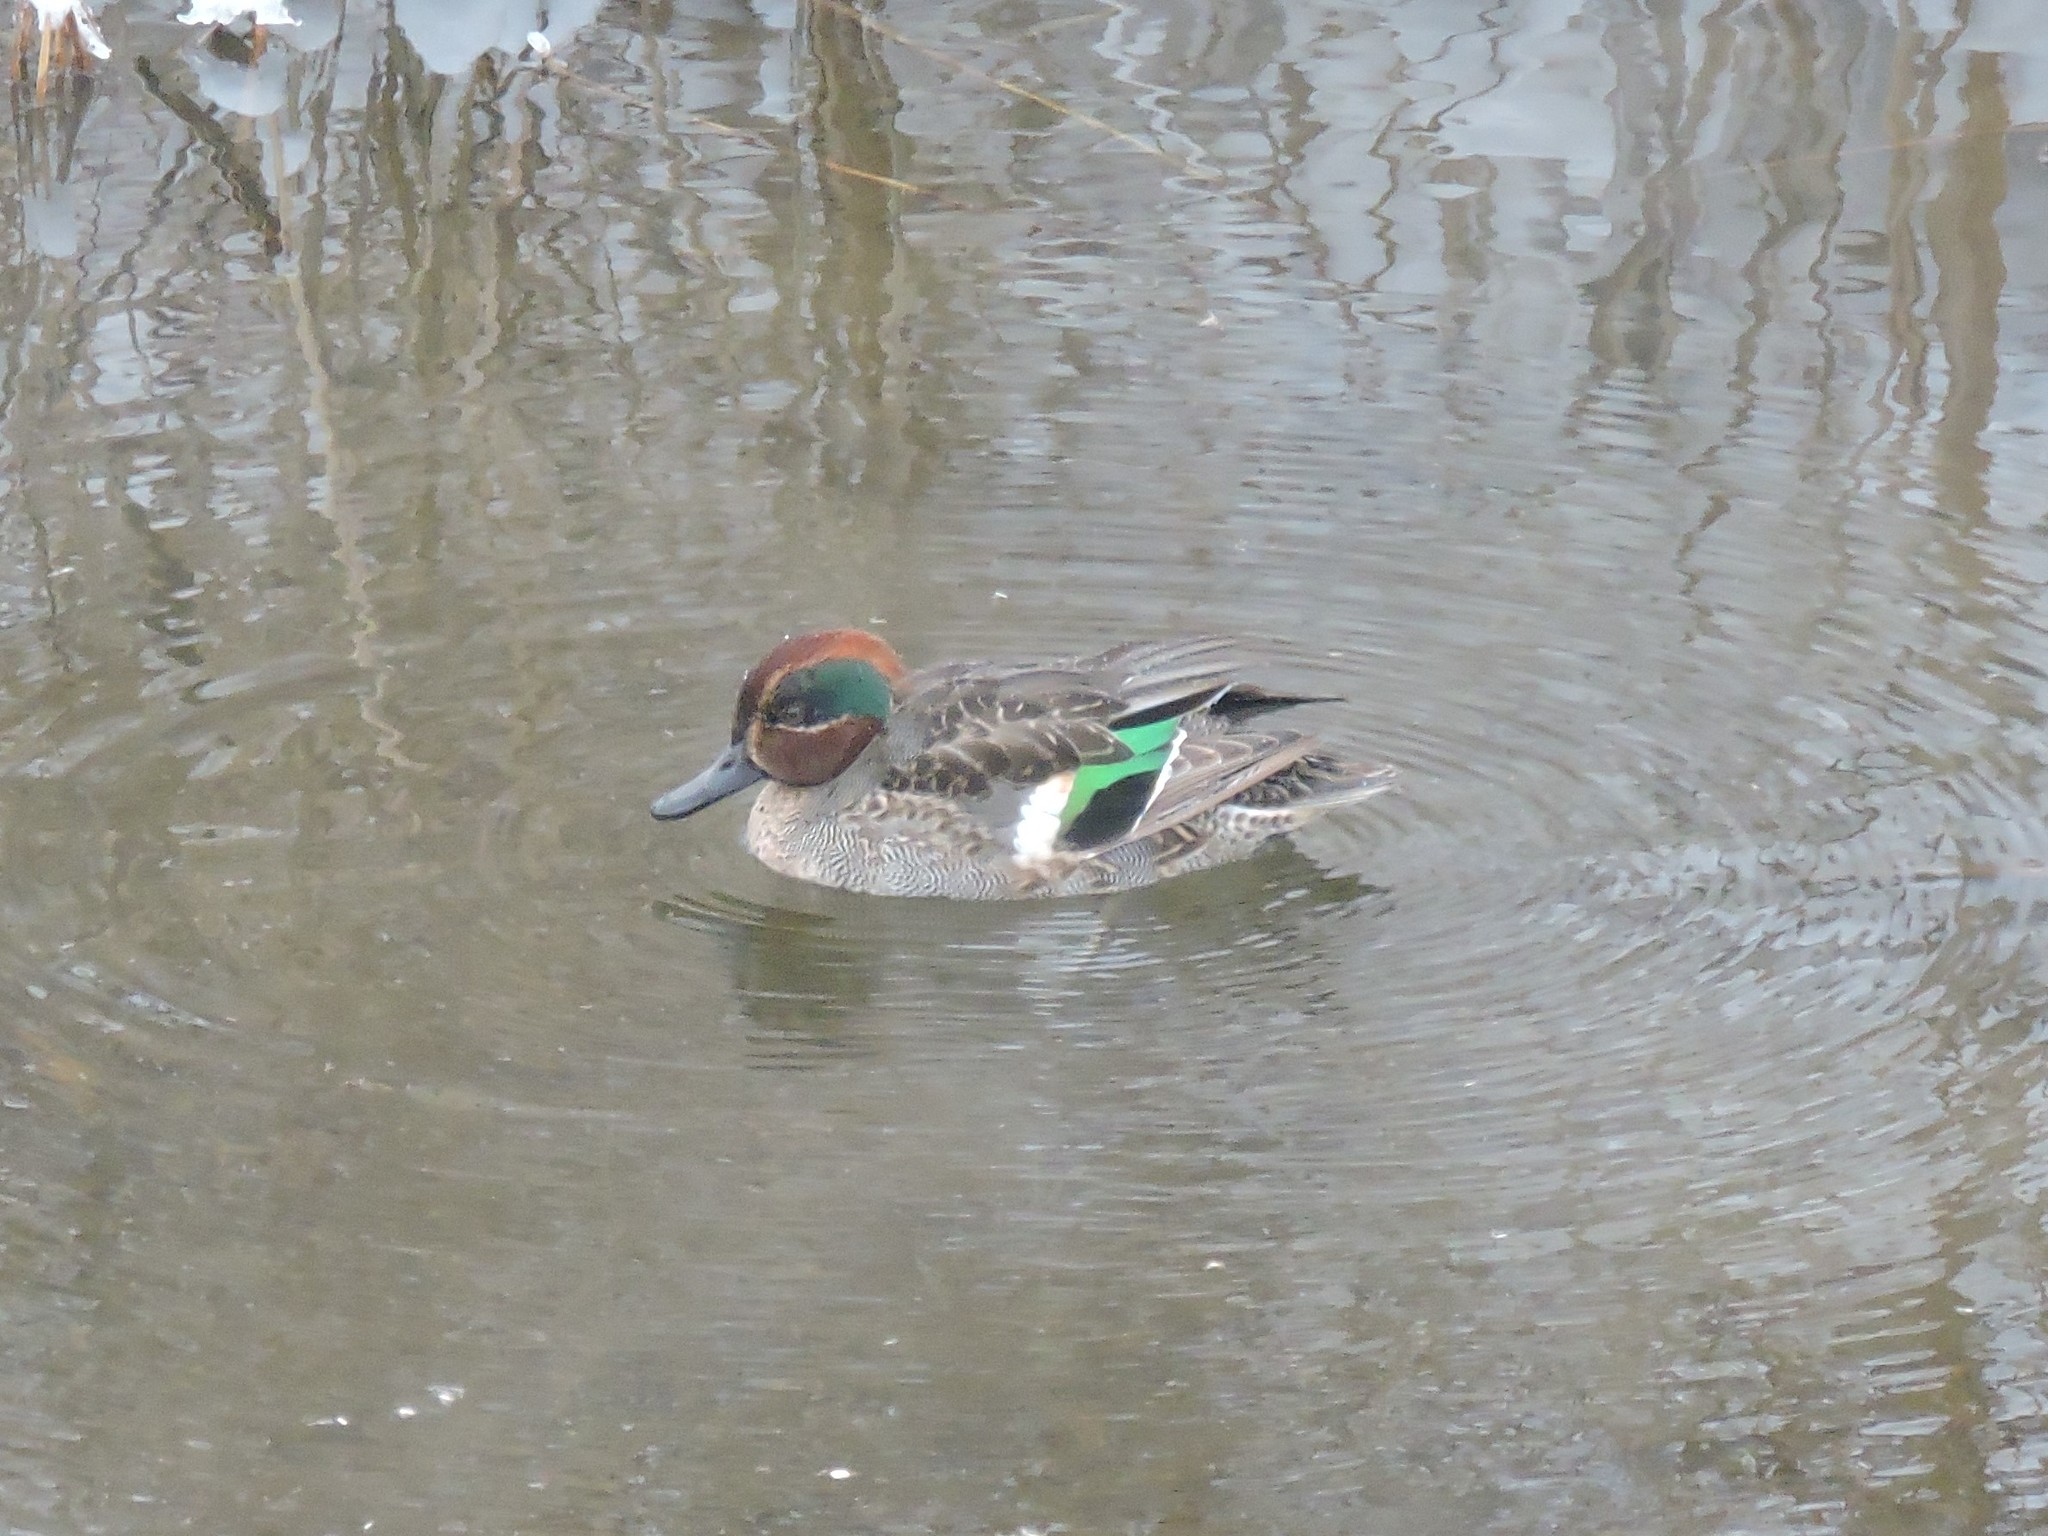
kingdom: Animalia
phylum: Chordata
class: Aves
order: Anseriformes
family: Anatidae
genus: Anas
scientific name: Anas crecca
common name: Eurasian teal
